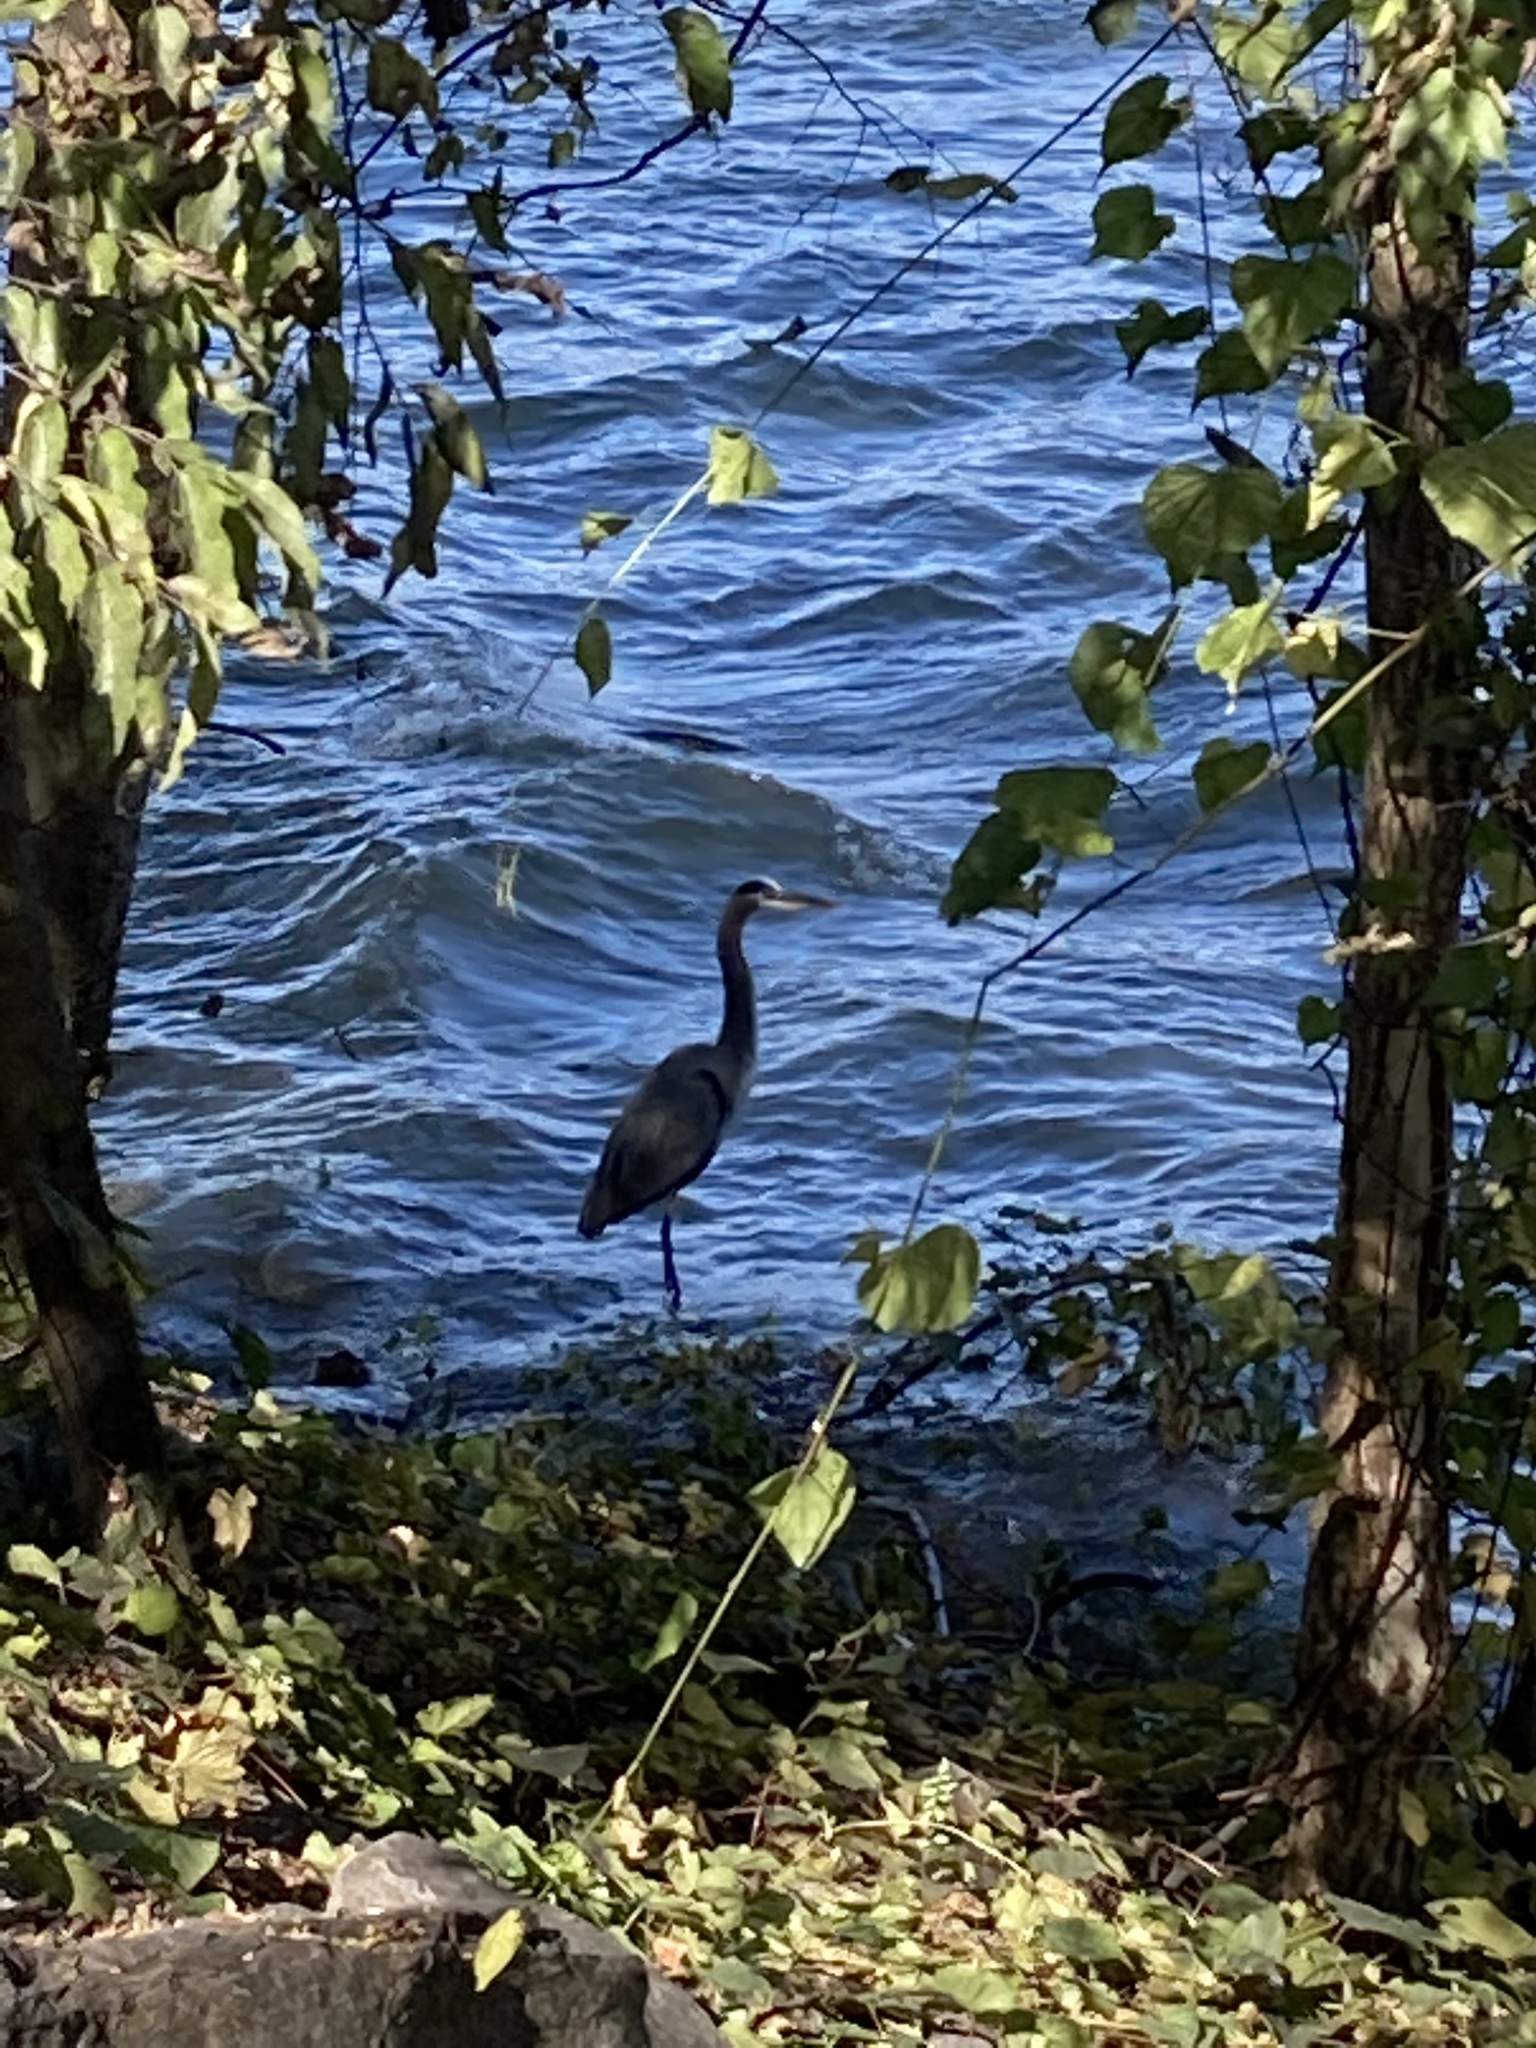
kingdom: Animalia
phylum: Chordata
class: Aves
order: Pelecaniformes
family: Ardeidae
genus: Ardea
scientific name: Ardea herodias
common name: Great blue heron
